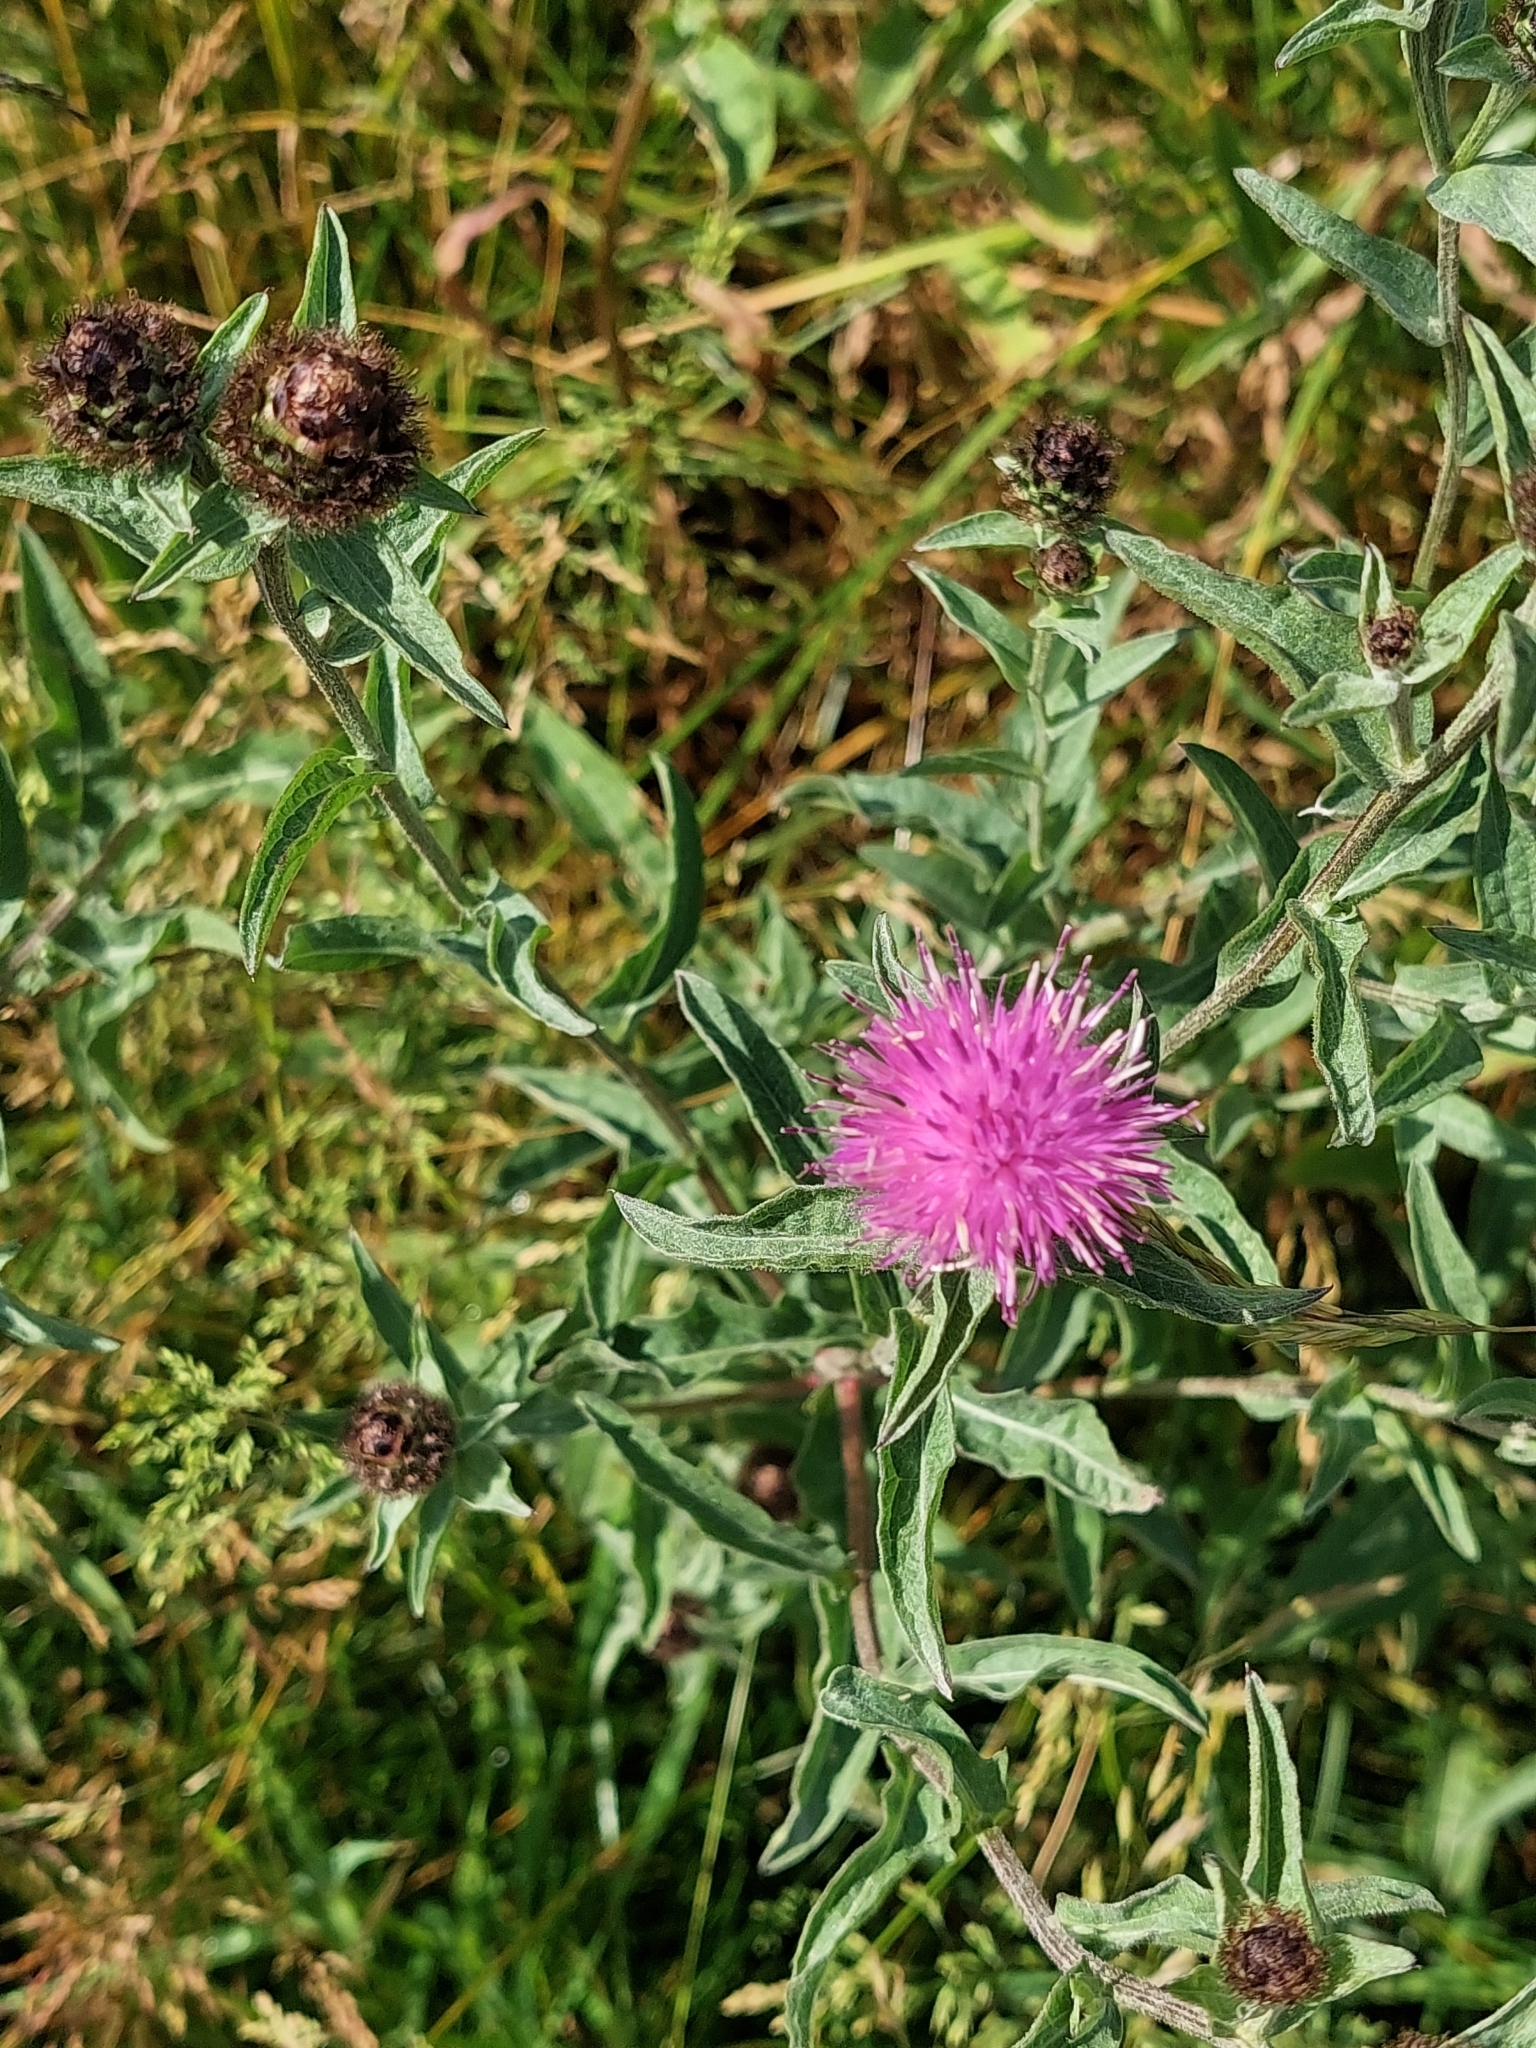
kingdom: Plantae
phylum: Tracheophyta
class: Magnoliopsida
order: Asterales
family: Asteraceae
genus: Centaurea
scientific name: Centaurea nigra
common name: Lesser knapweed
